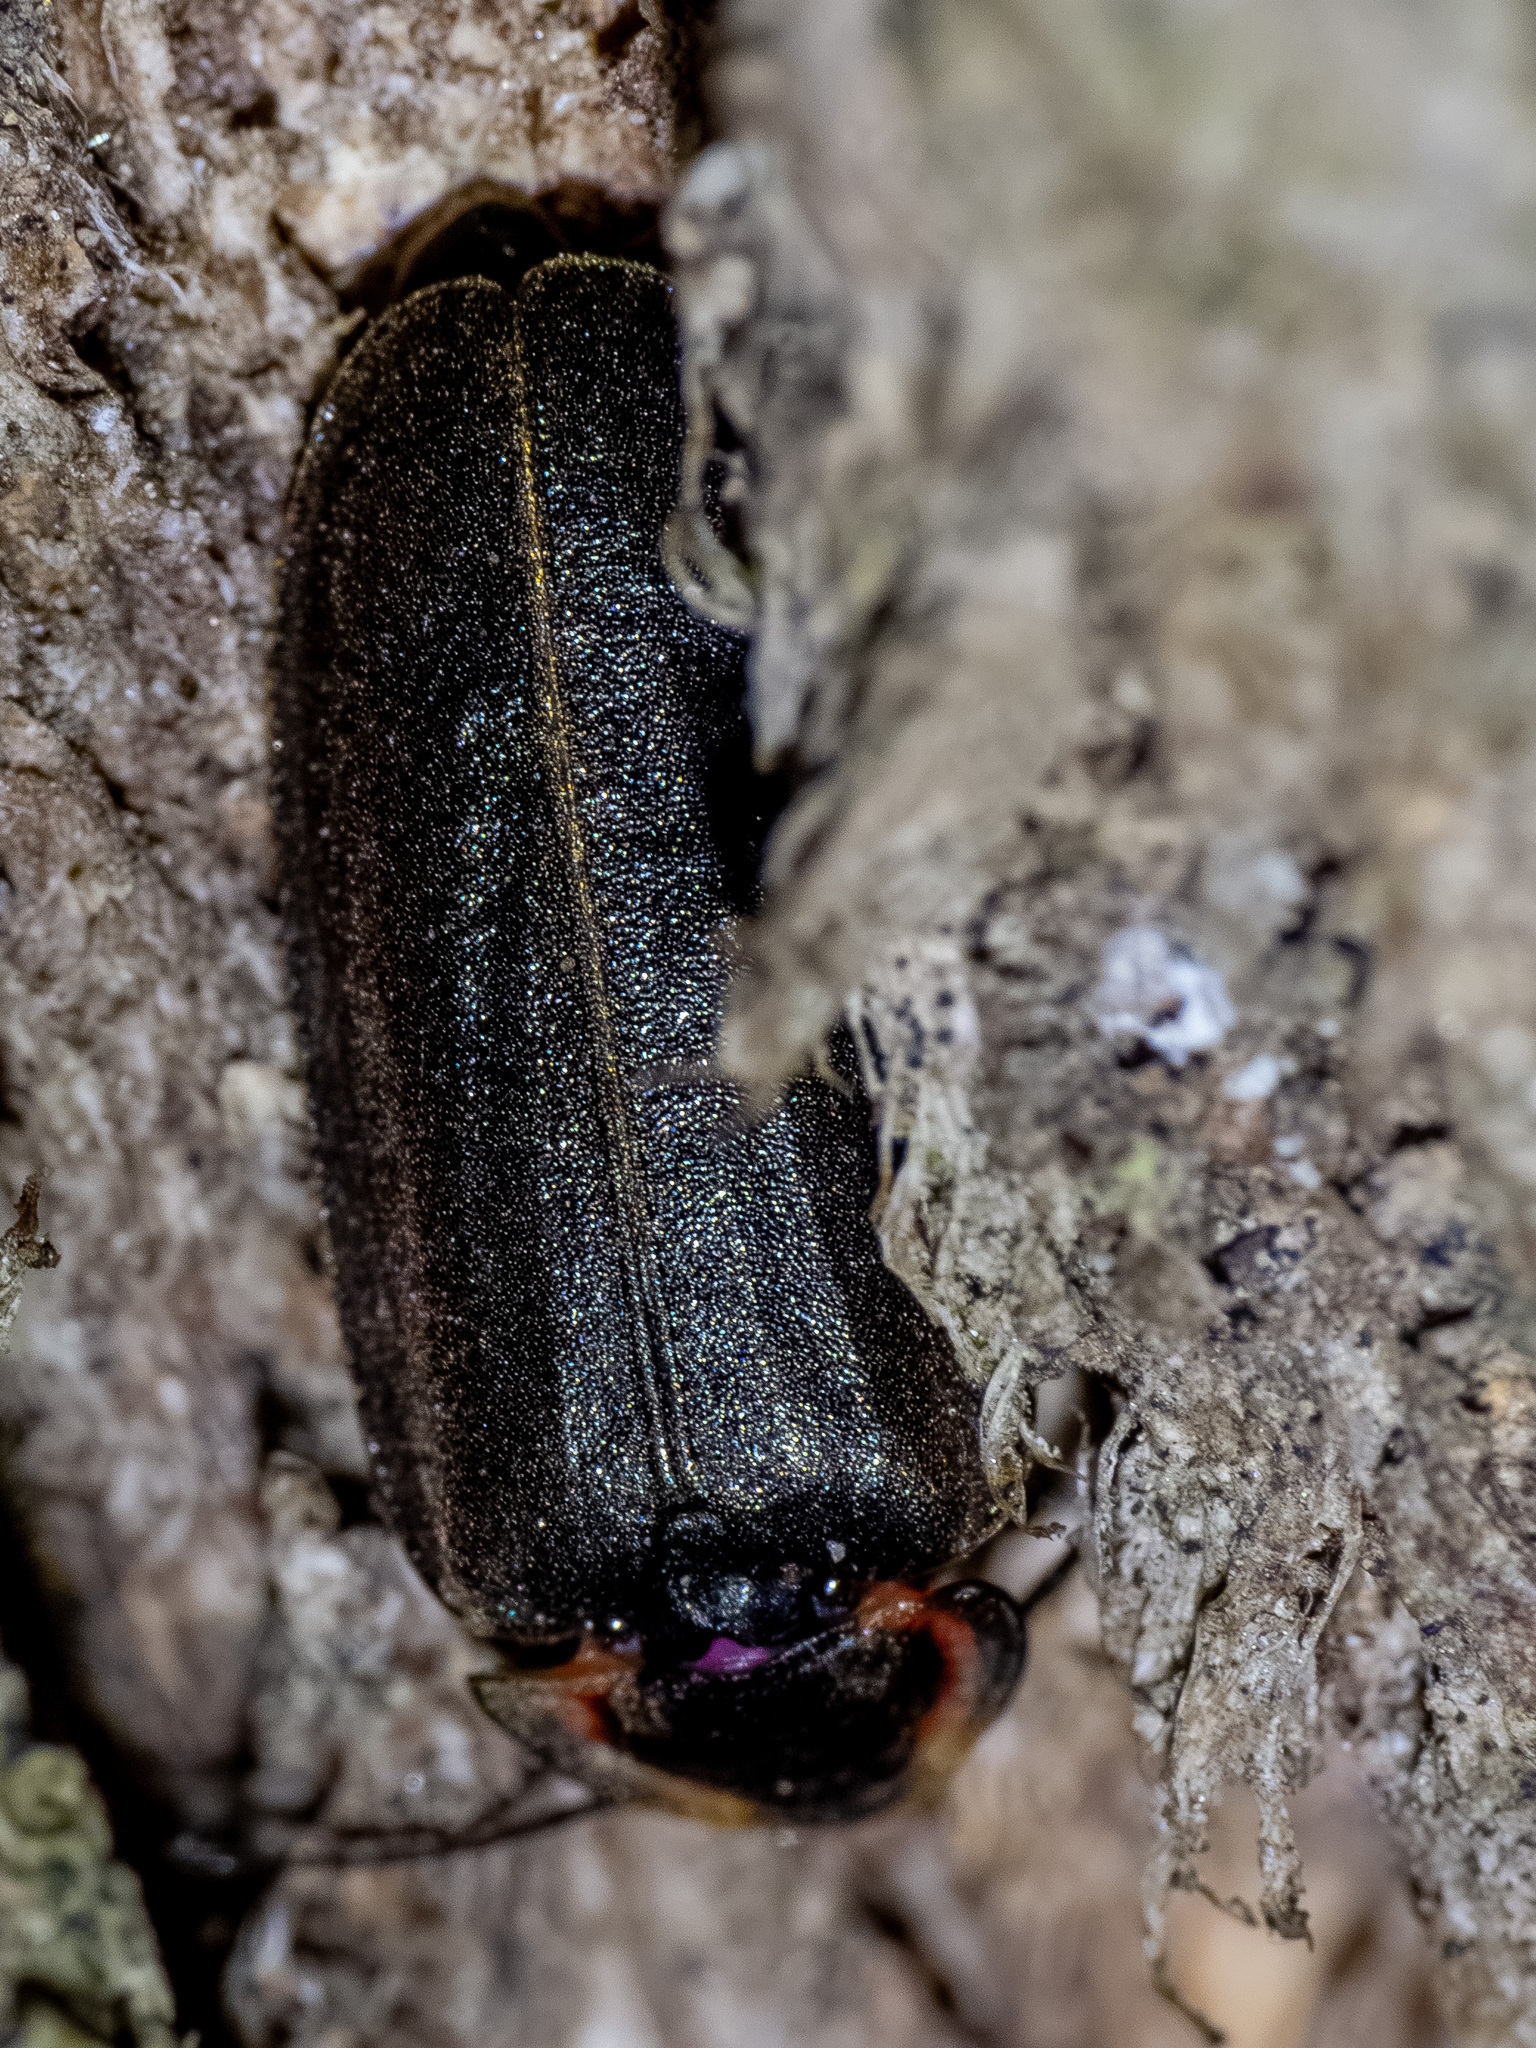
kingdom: Animalia
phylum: Arthropoda
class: Insecta
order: Coleoptera
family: Lampyridae
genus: Photinus
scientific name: Photinus corrusca
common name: Winter firefly
